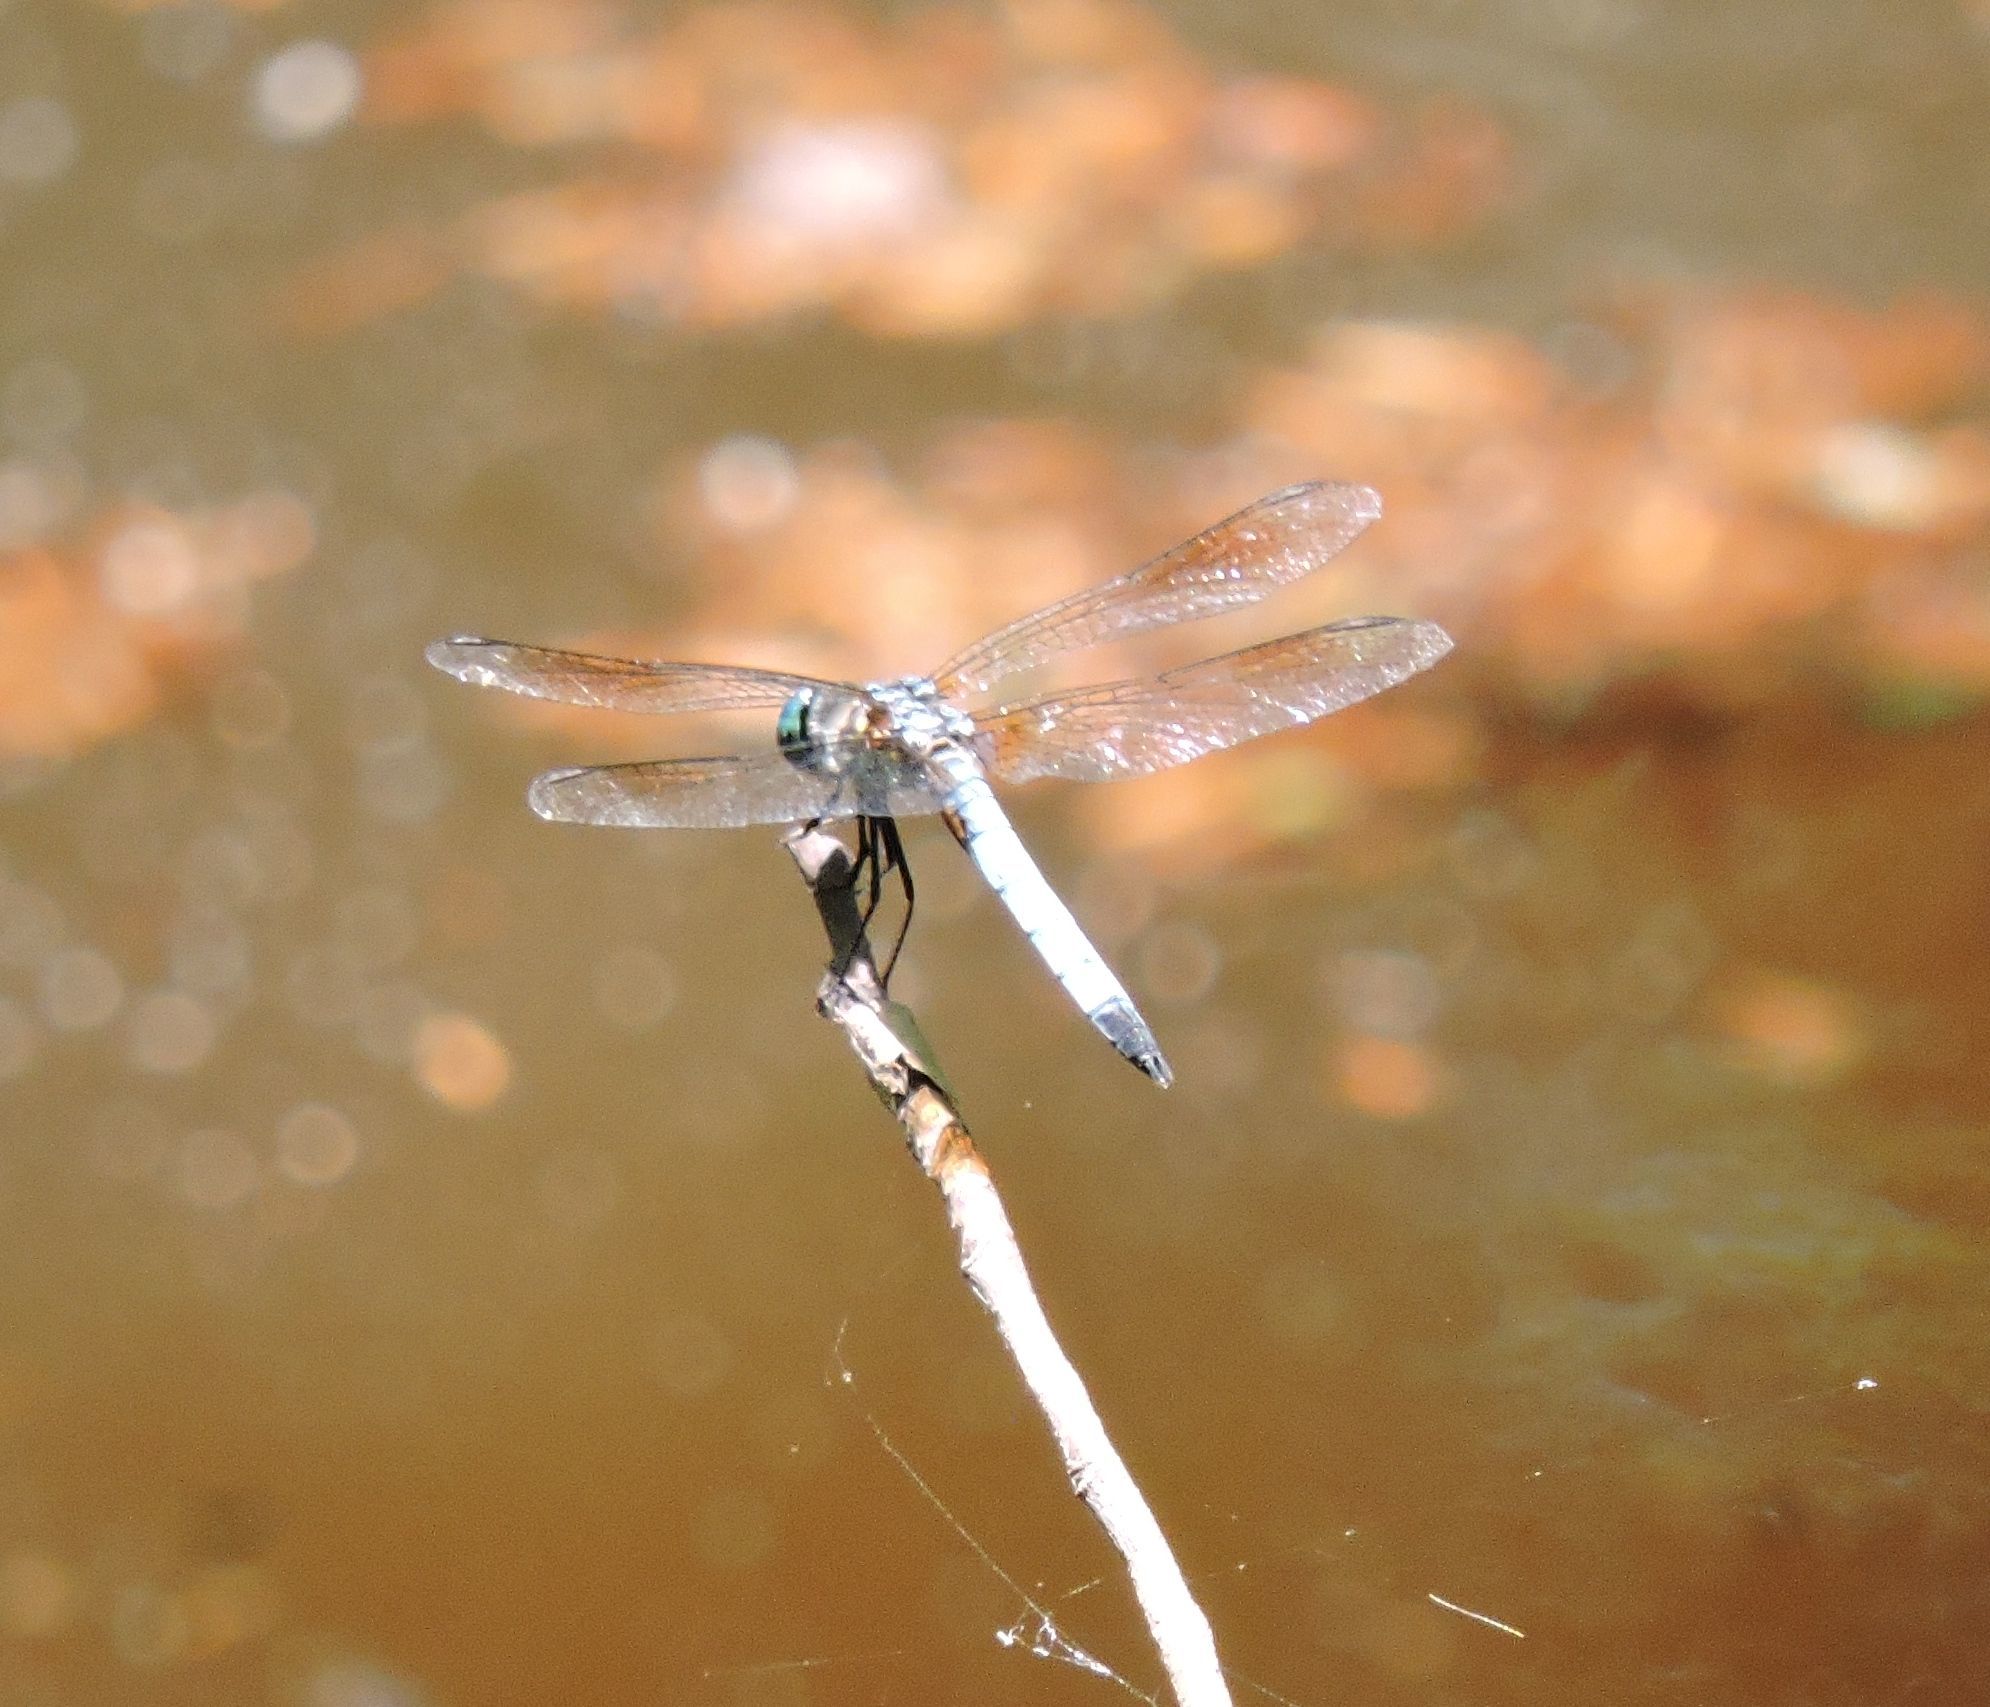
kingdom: Animalia
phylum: Arthropoda
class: Insecta
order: Odonata
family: Libellulidae
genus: Pachydiplax
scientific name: Pachydiplax longipennis
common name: Blue dasher
